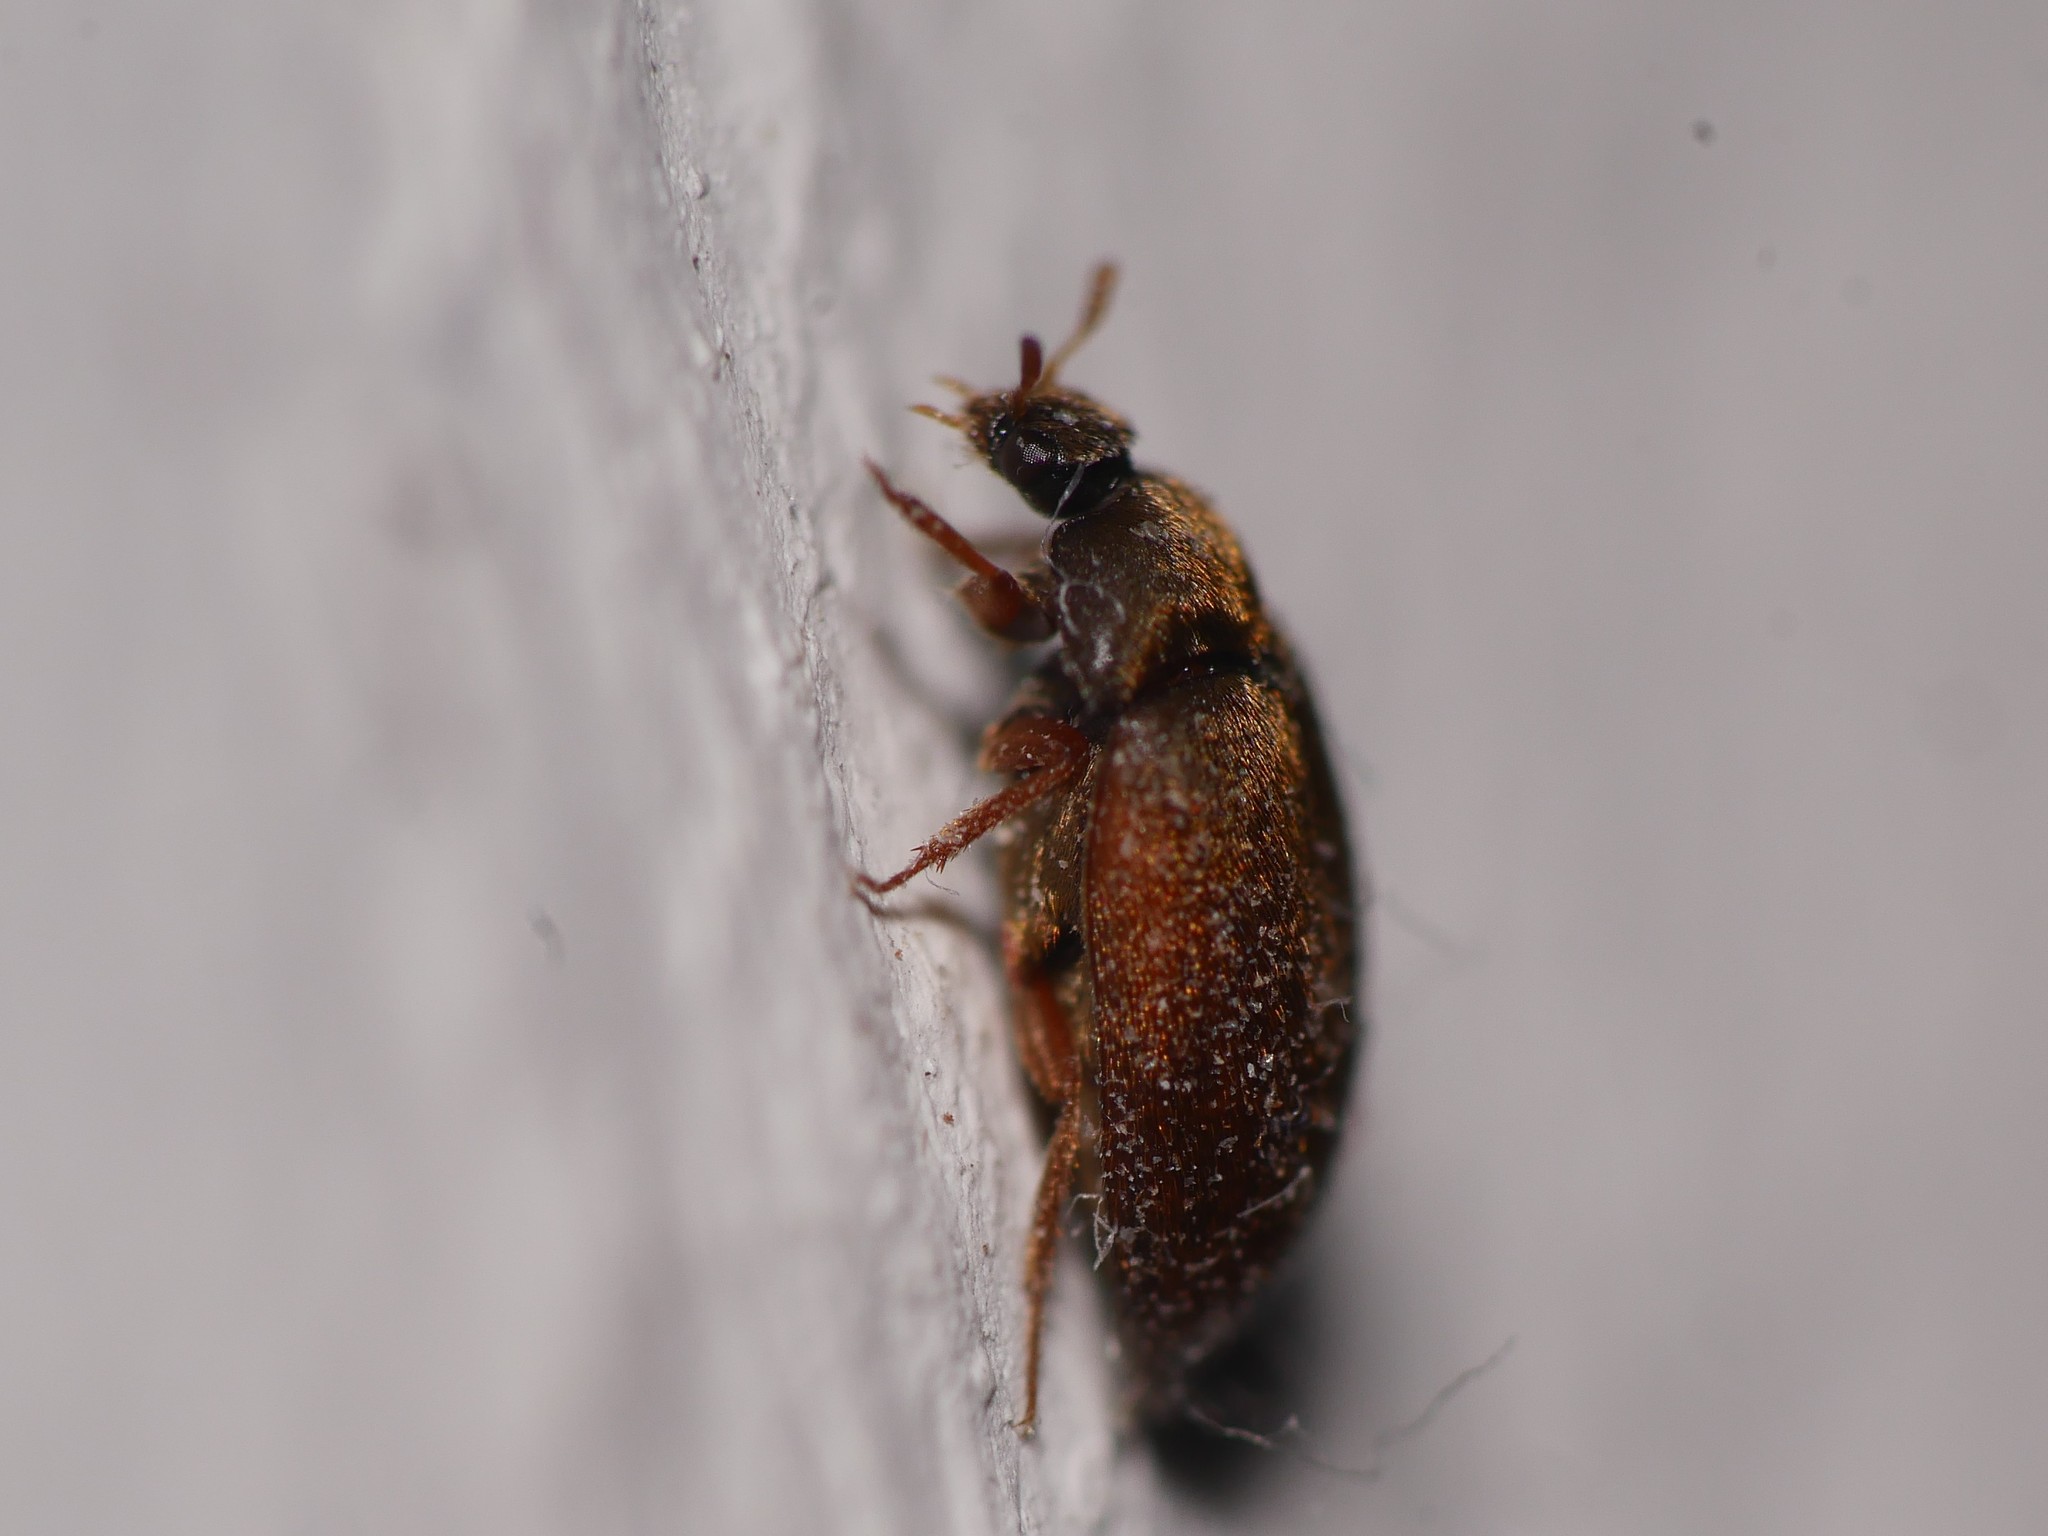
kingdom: Animalia
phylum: Arthropoda
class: Insecta
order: Coleoptera
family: Dermestidae
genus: Attagenus
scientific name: Attagenus smirnovi
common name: Brown carpet beetle
